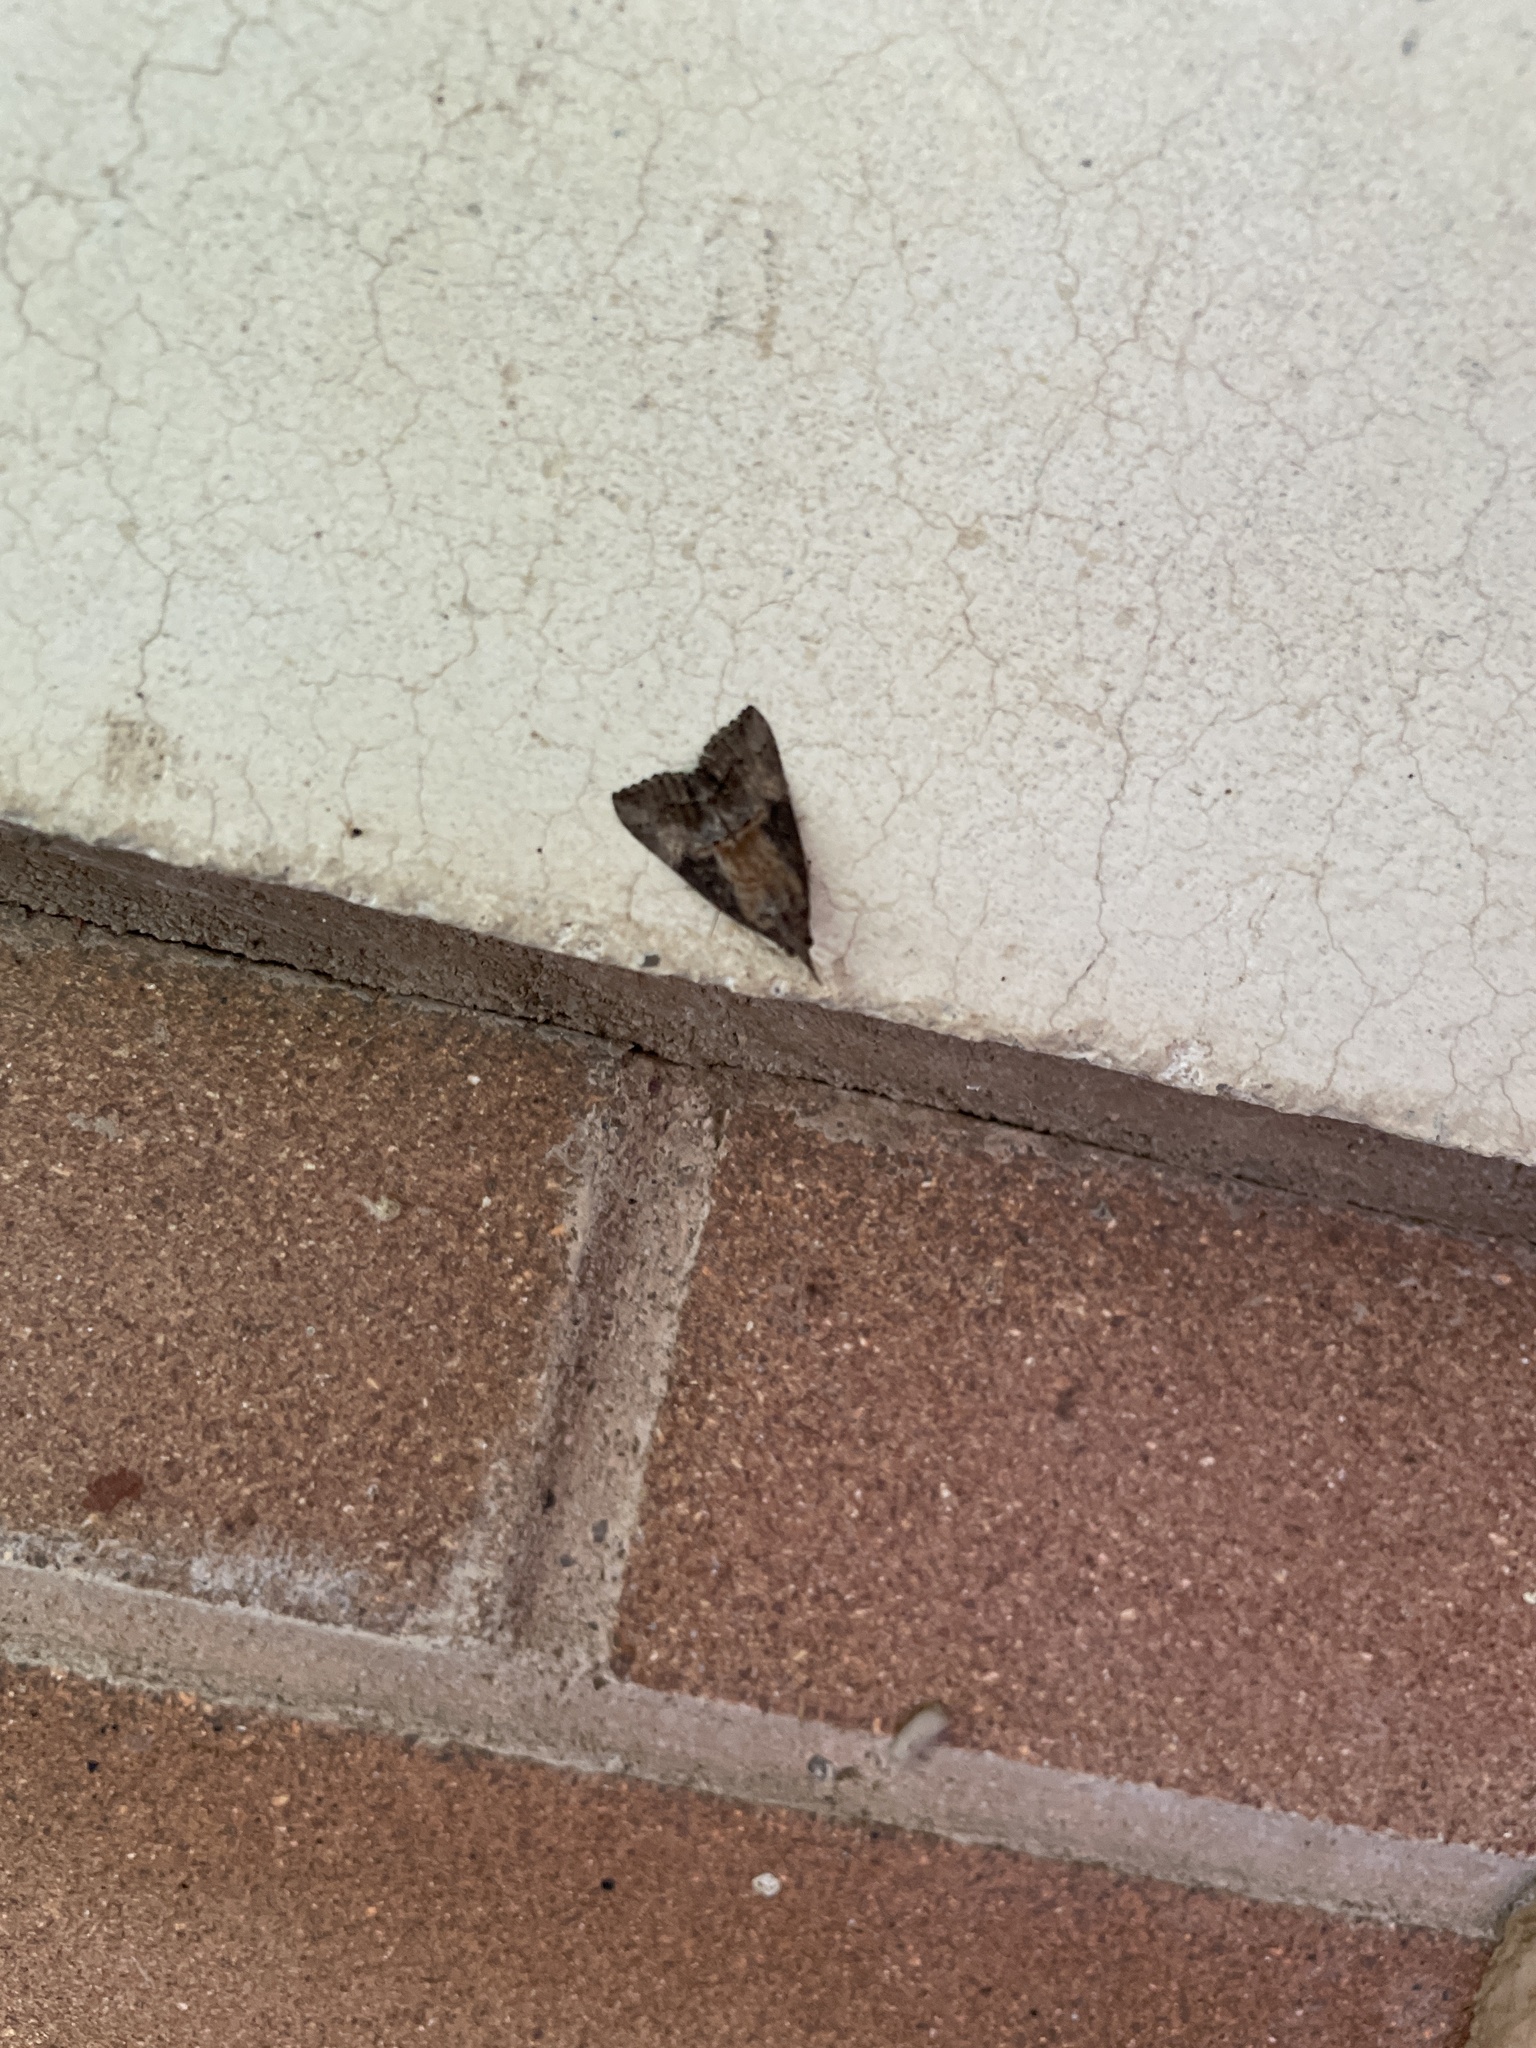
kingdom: Animalia
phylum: Arthropoda
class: Insecta
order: Lepidoptera
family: Erebidae
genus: Hypena
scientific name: Hypena scabra
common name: Green cloverworm
